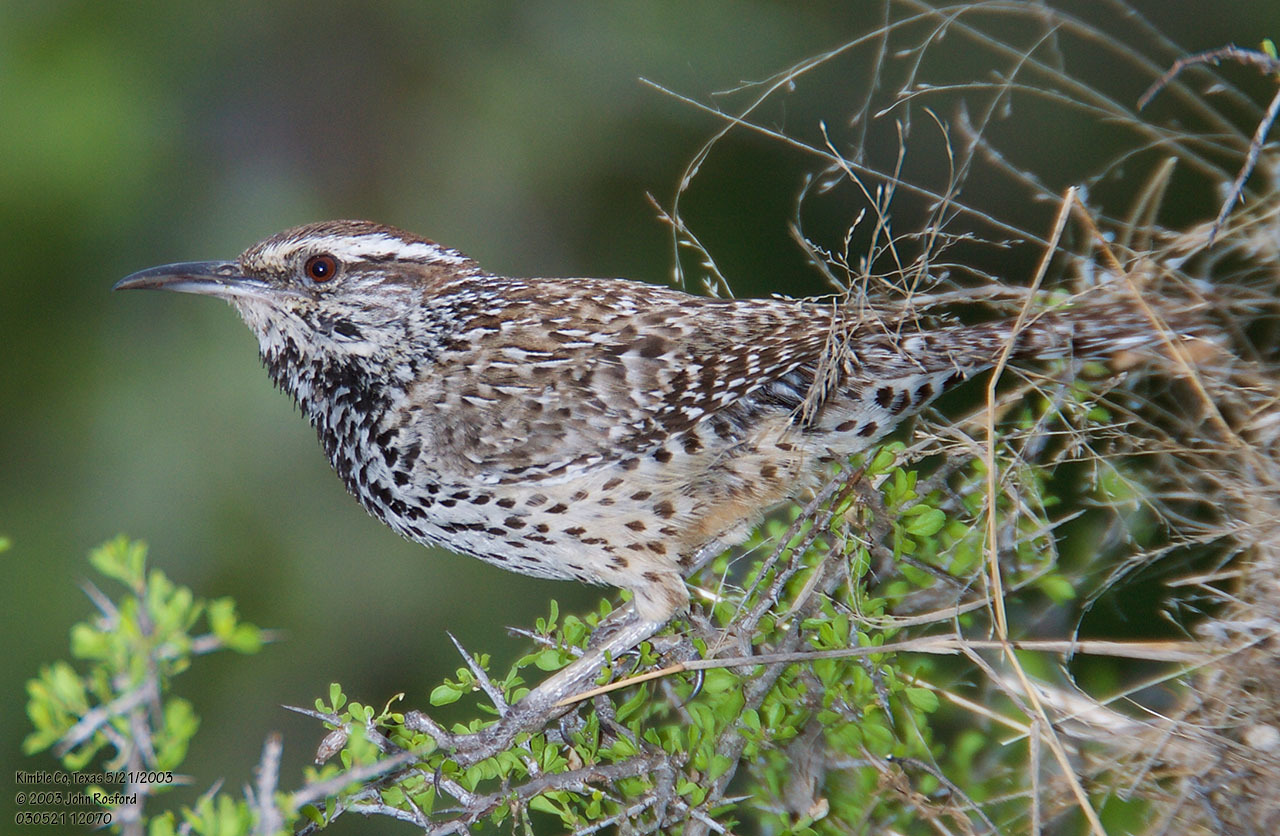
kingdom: Animalia
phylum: Chordata
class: Aves
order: Passeriformes
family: Troglodytidae
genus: Campylorhynchus
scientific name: Campylorhynchus brunneicapillus
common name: Cactus wren
